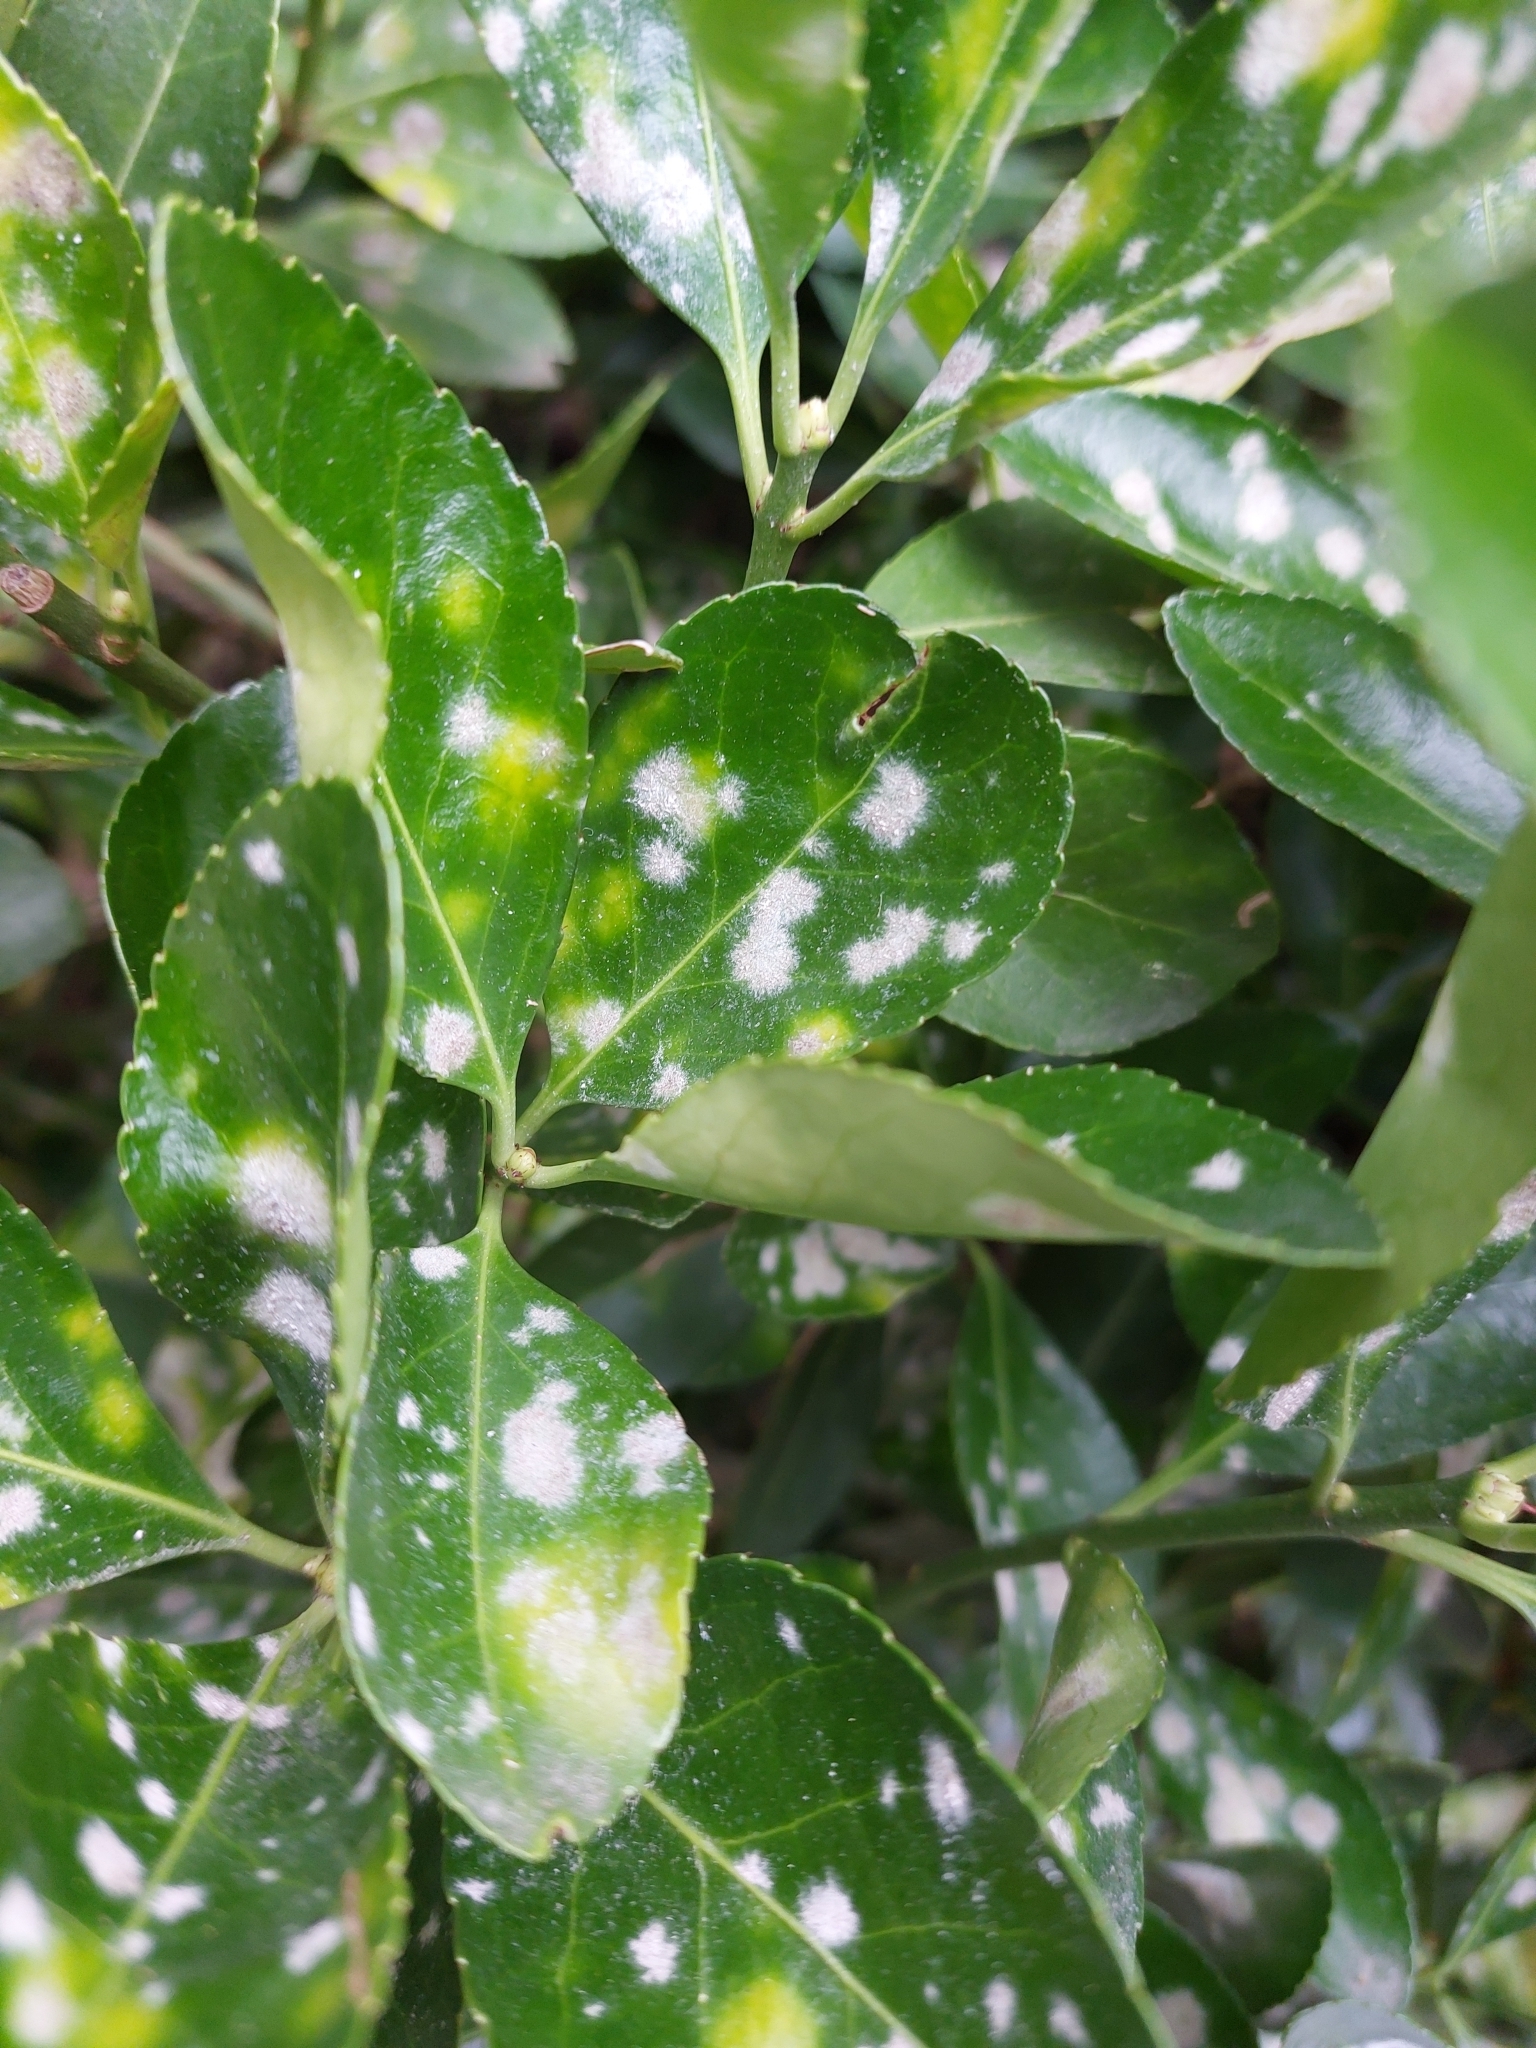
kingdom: Fungi
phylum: Ascomycota
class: Leotiomycetes
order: Helotiales
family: Erysiphaceae
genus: Erysiphe
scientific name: Erysiphe euonymicola
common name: Spindletree mildew
